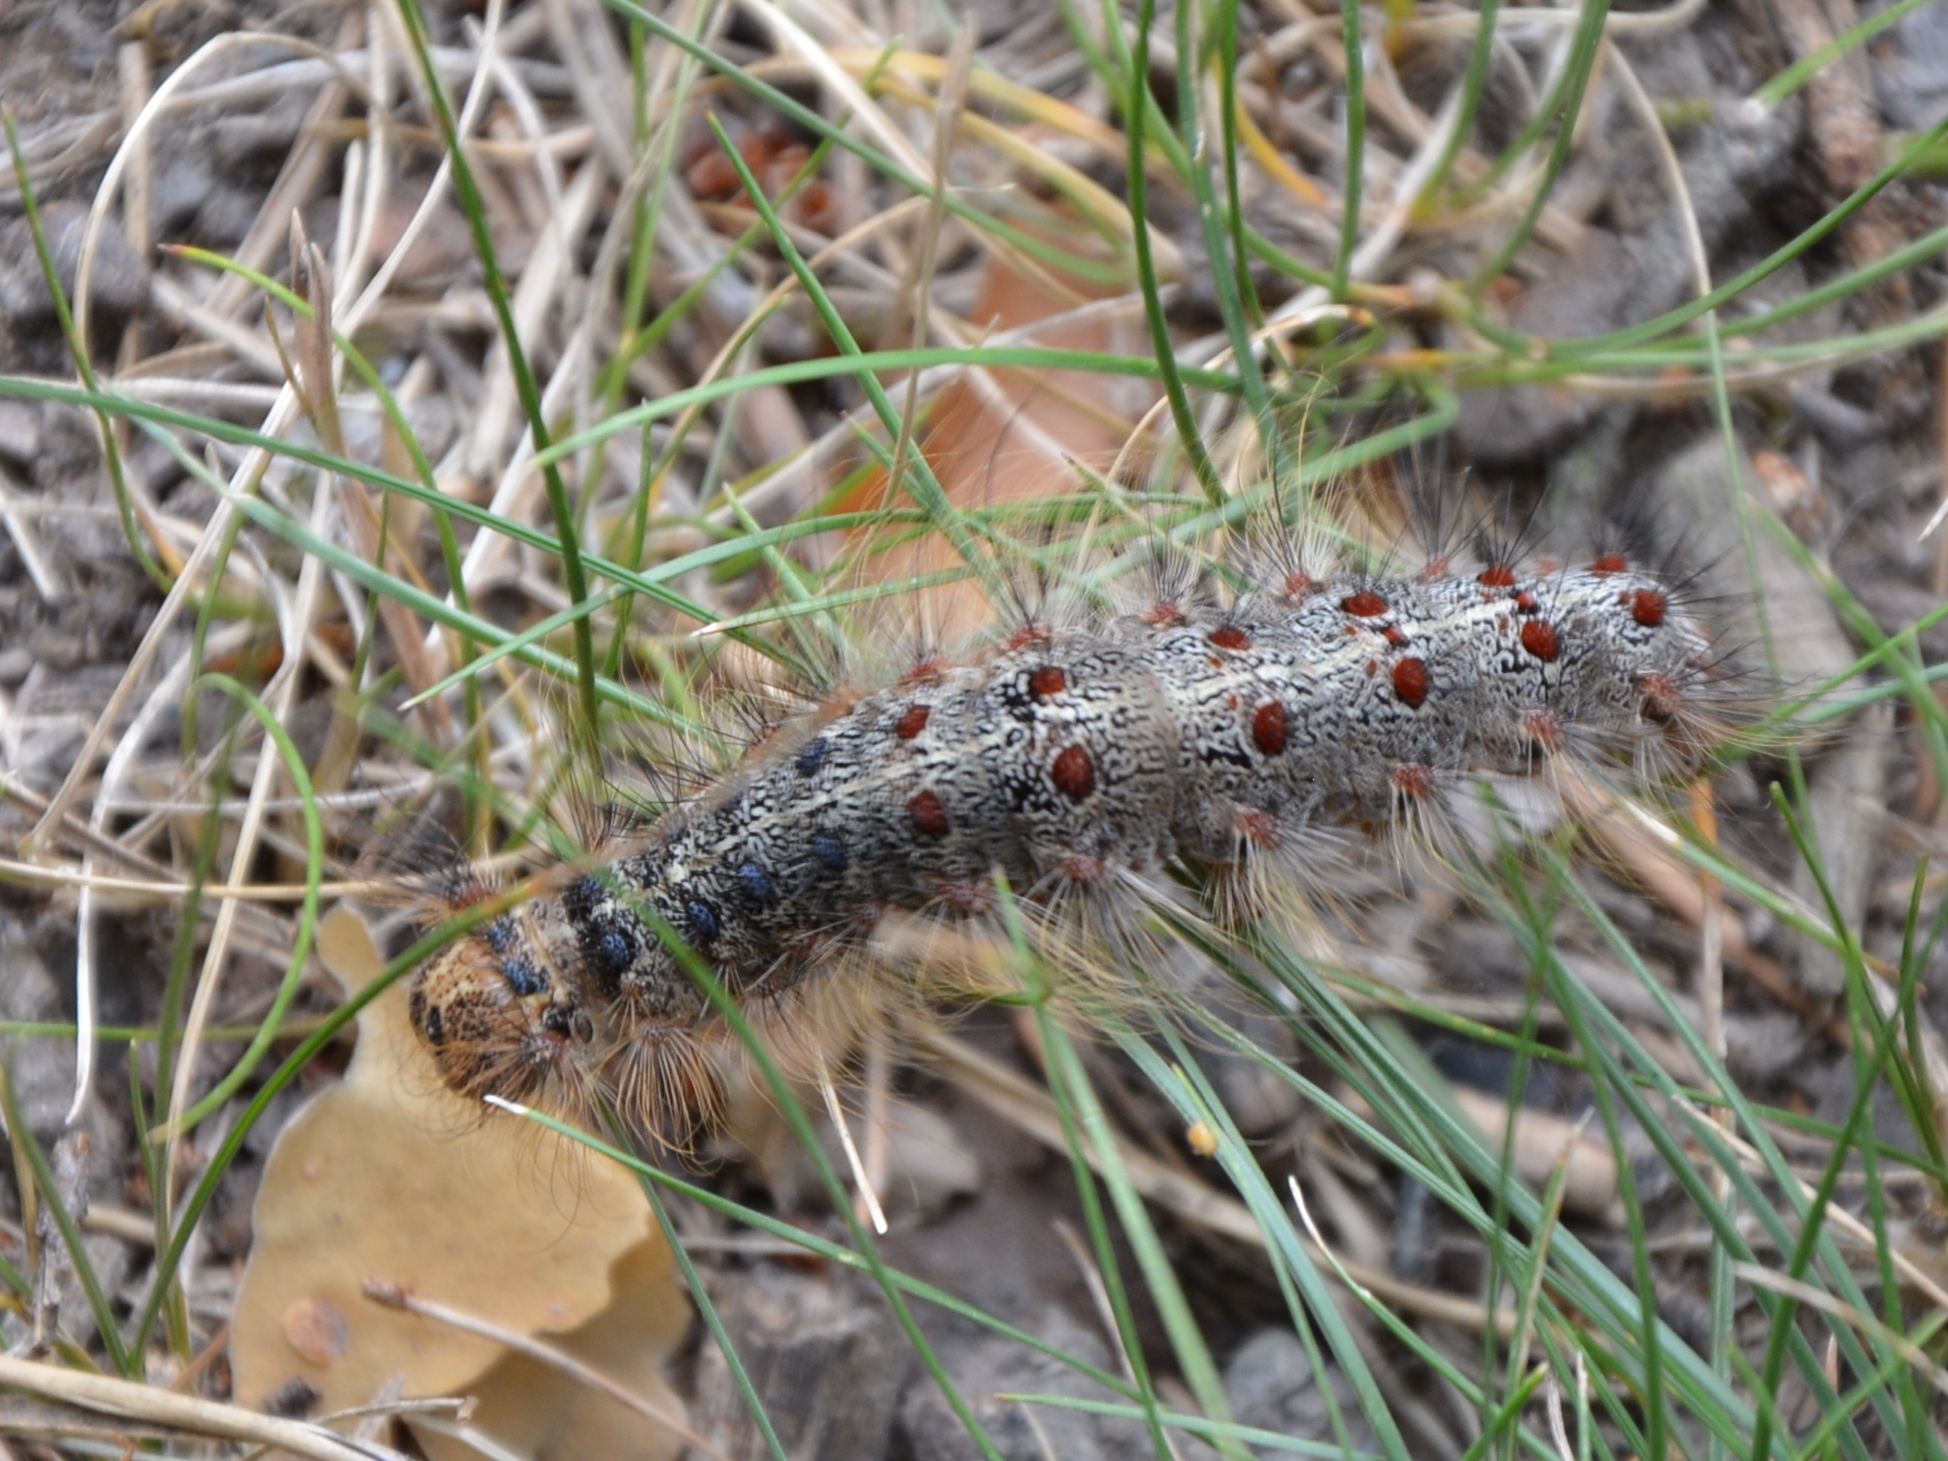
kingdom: Animalia
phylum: Arthropoda
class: Insecta
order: Lepidoptera
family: Erebidae
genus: Lymantria
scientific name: Lymantria dispar
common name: Gypsy moth
